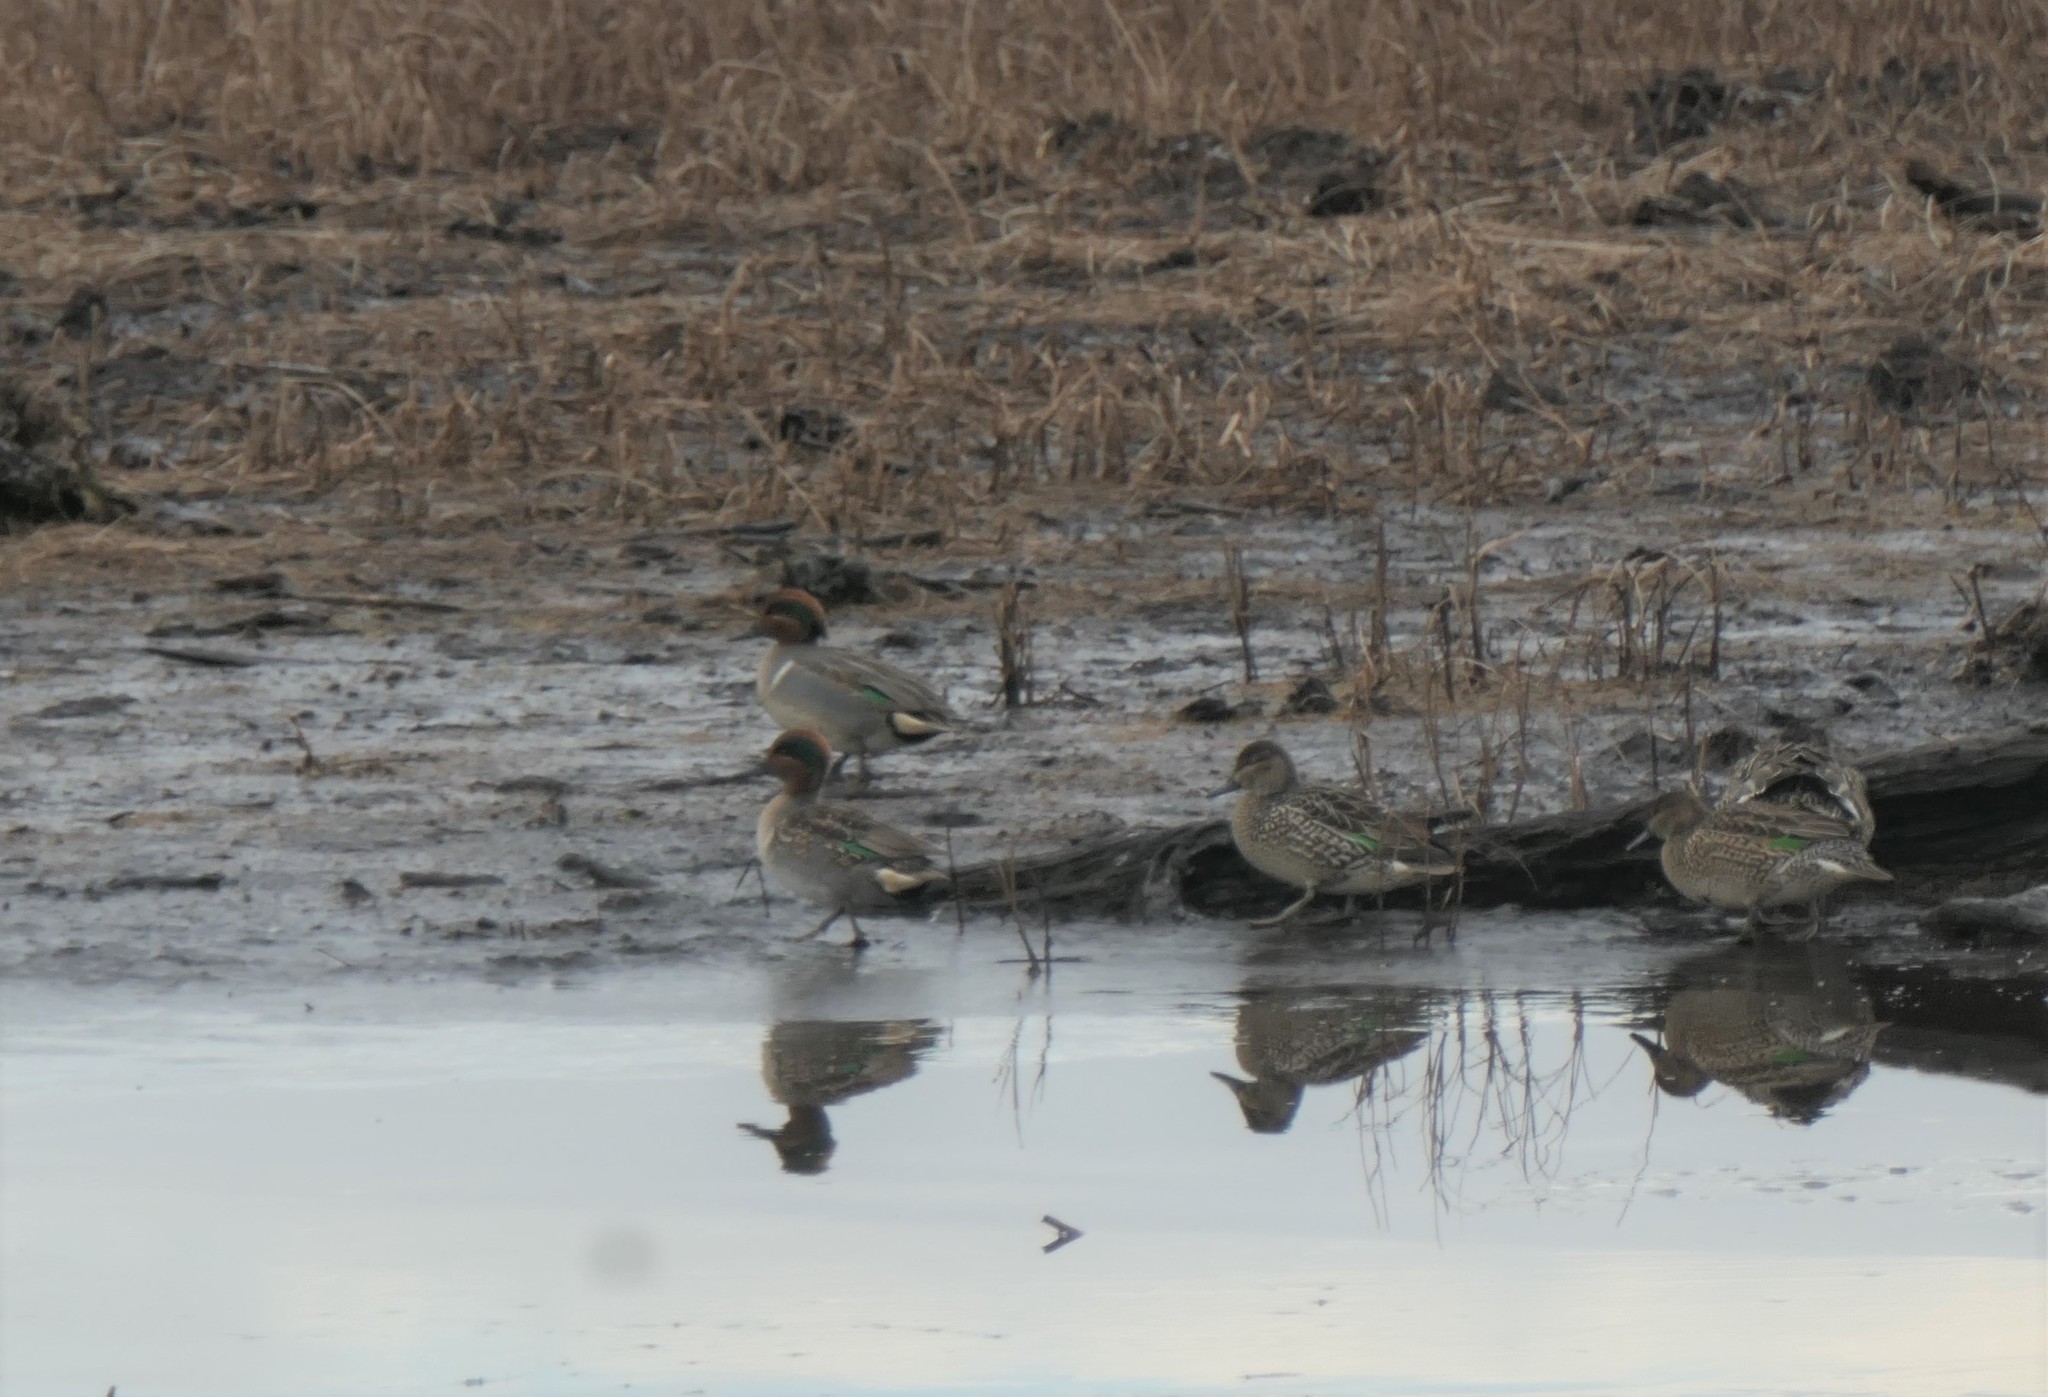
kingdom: Animalia
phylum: Chordata
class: Aves
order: Anseriformes
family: Anatidae
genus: Anas
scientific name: Anas crecca
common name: Eurasian teal
